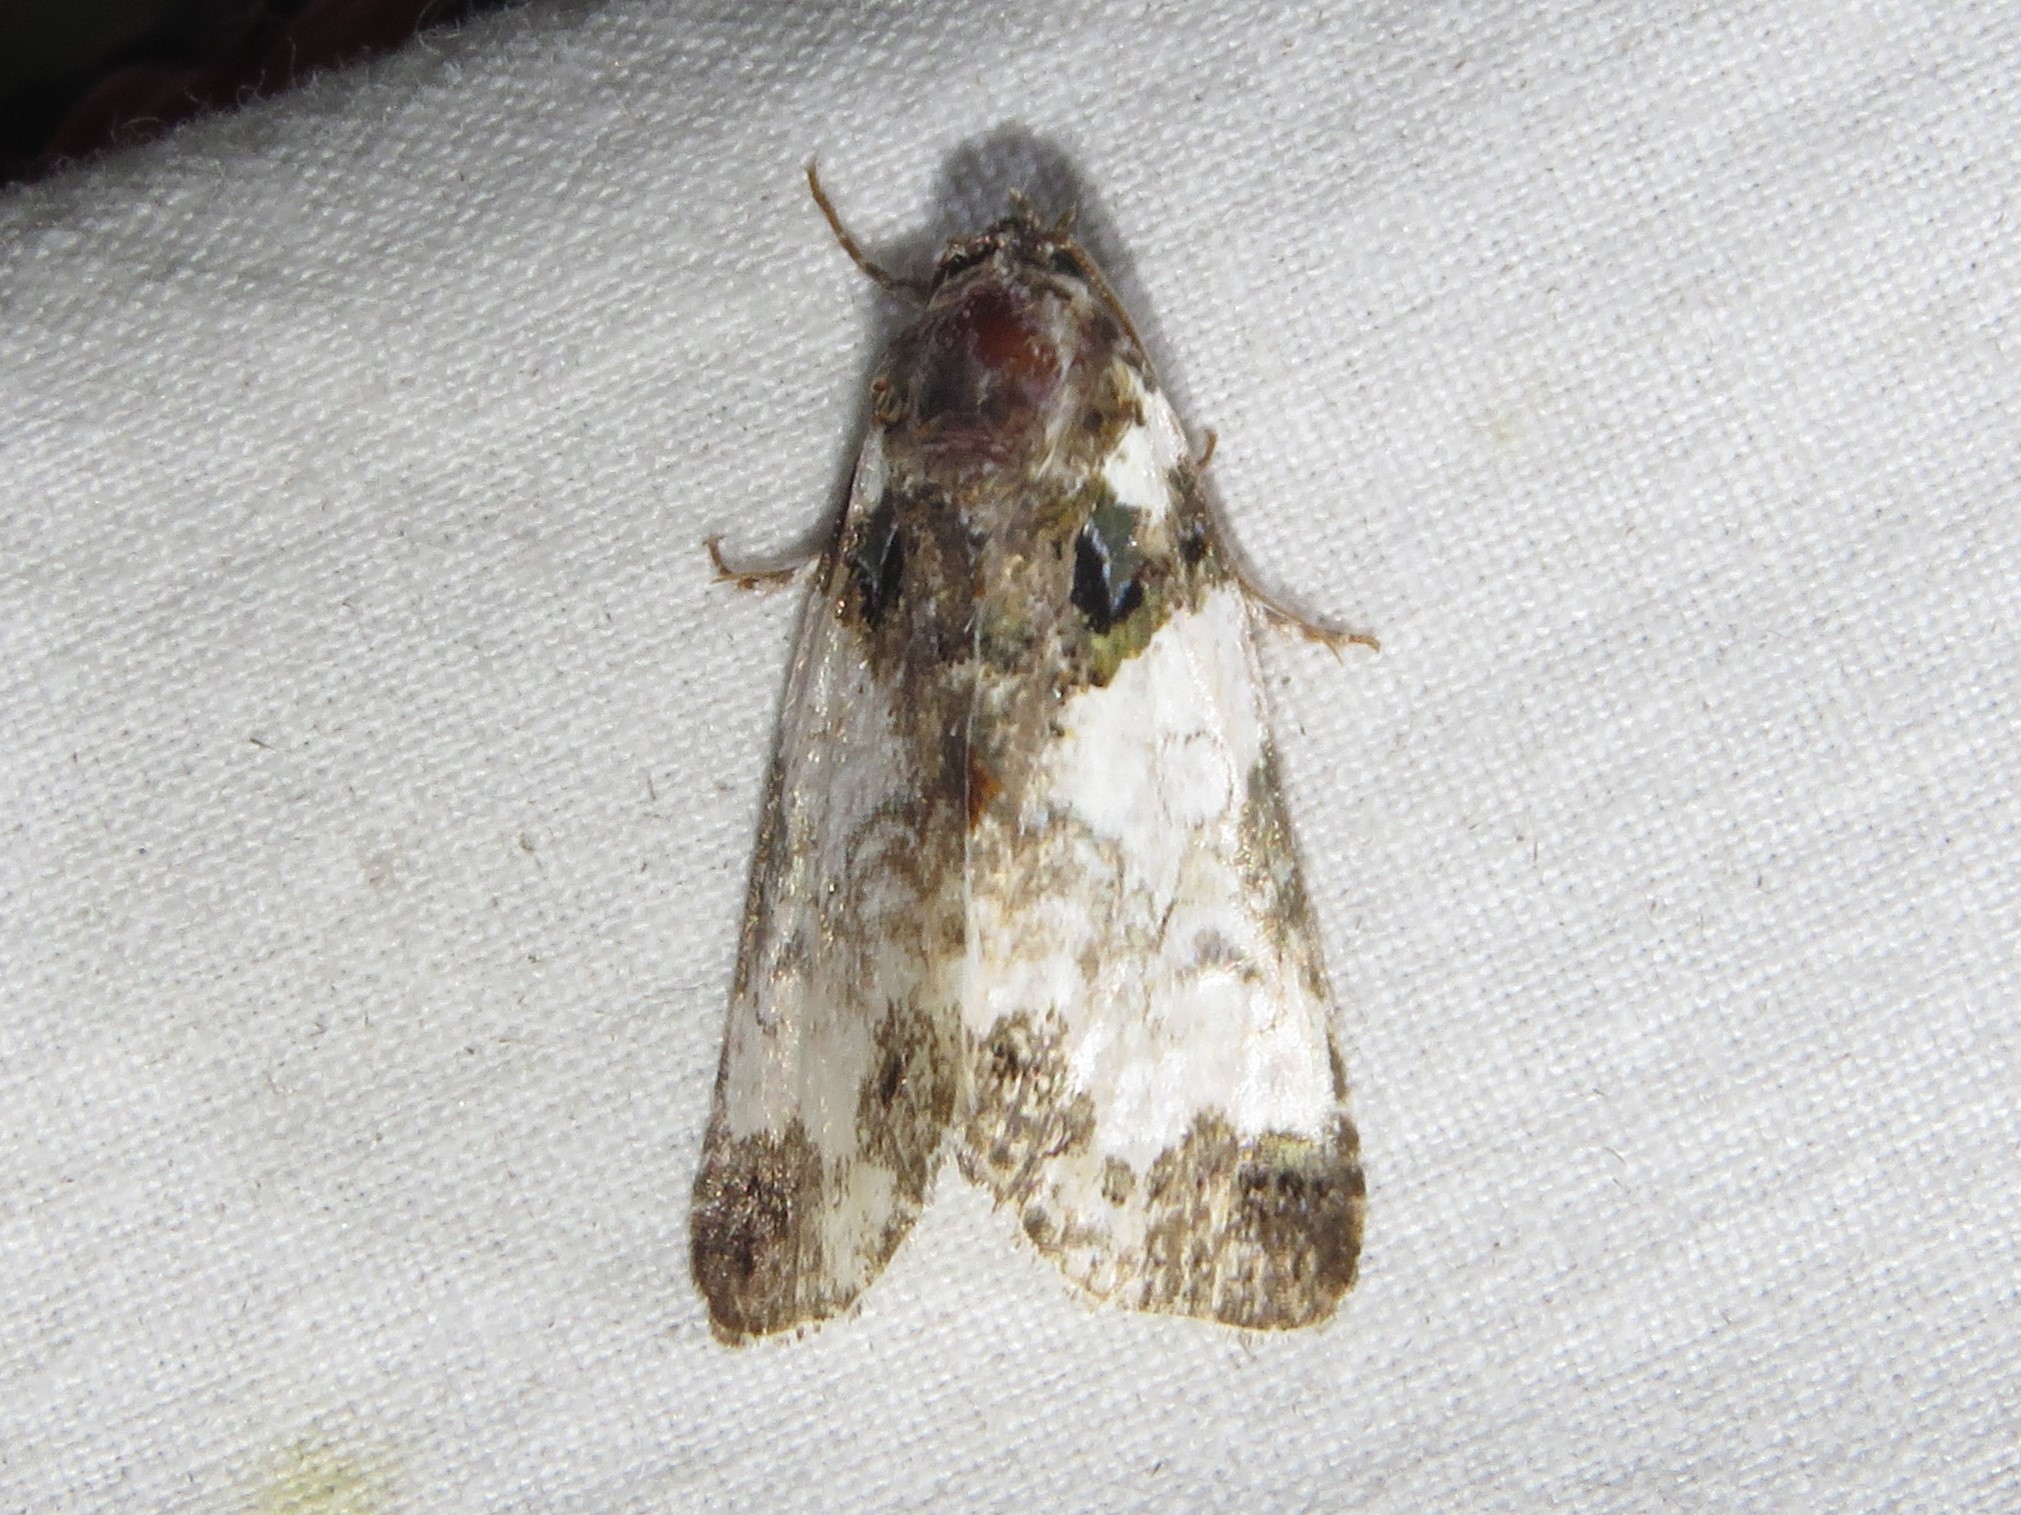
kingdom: Animalia
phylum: Arthropoda
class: Insecta
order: Lepidoptera
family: Noctuidae
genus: Cerma
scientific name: Cerma cerintha
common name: Tufted bird-dropping moth
